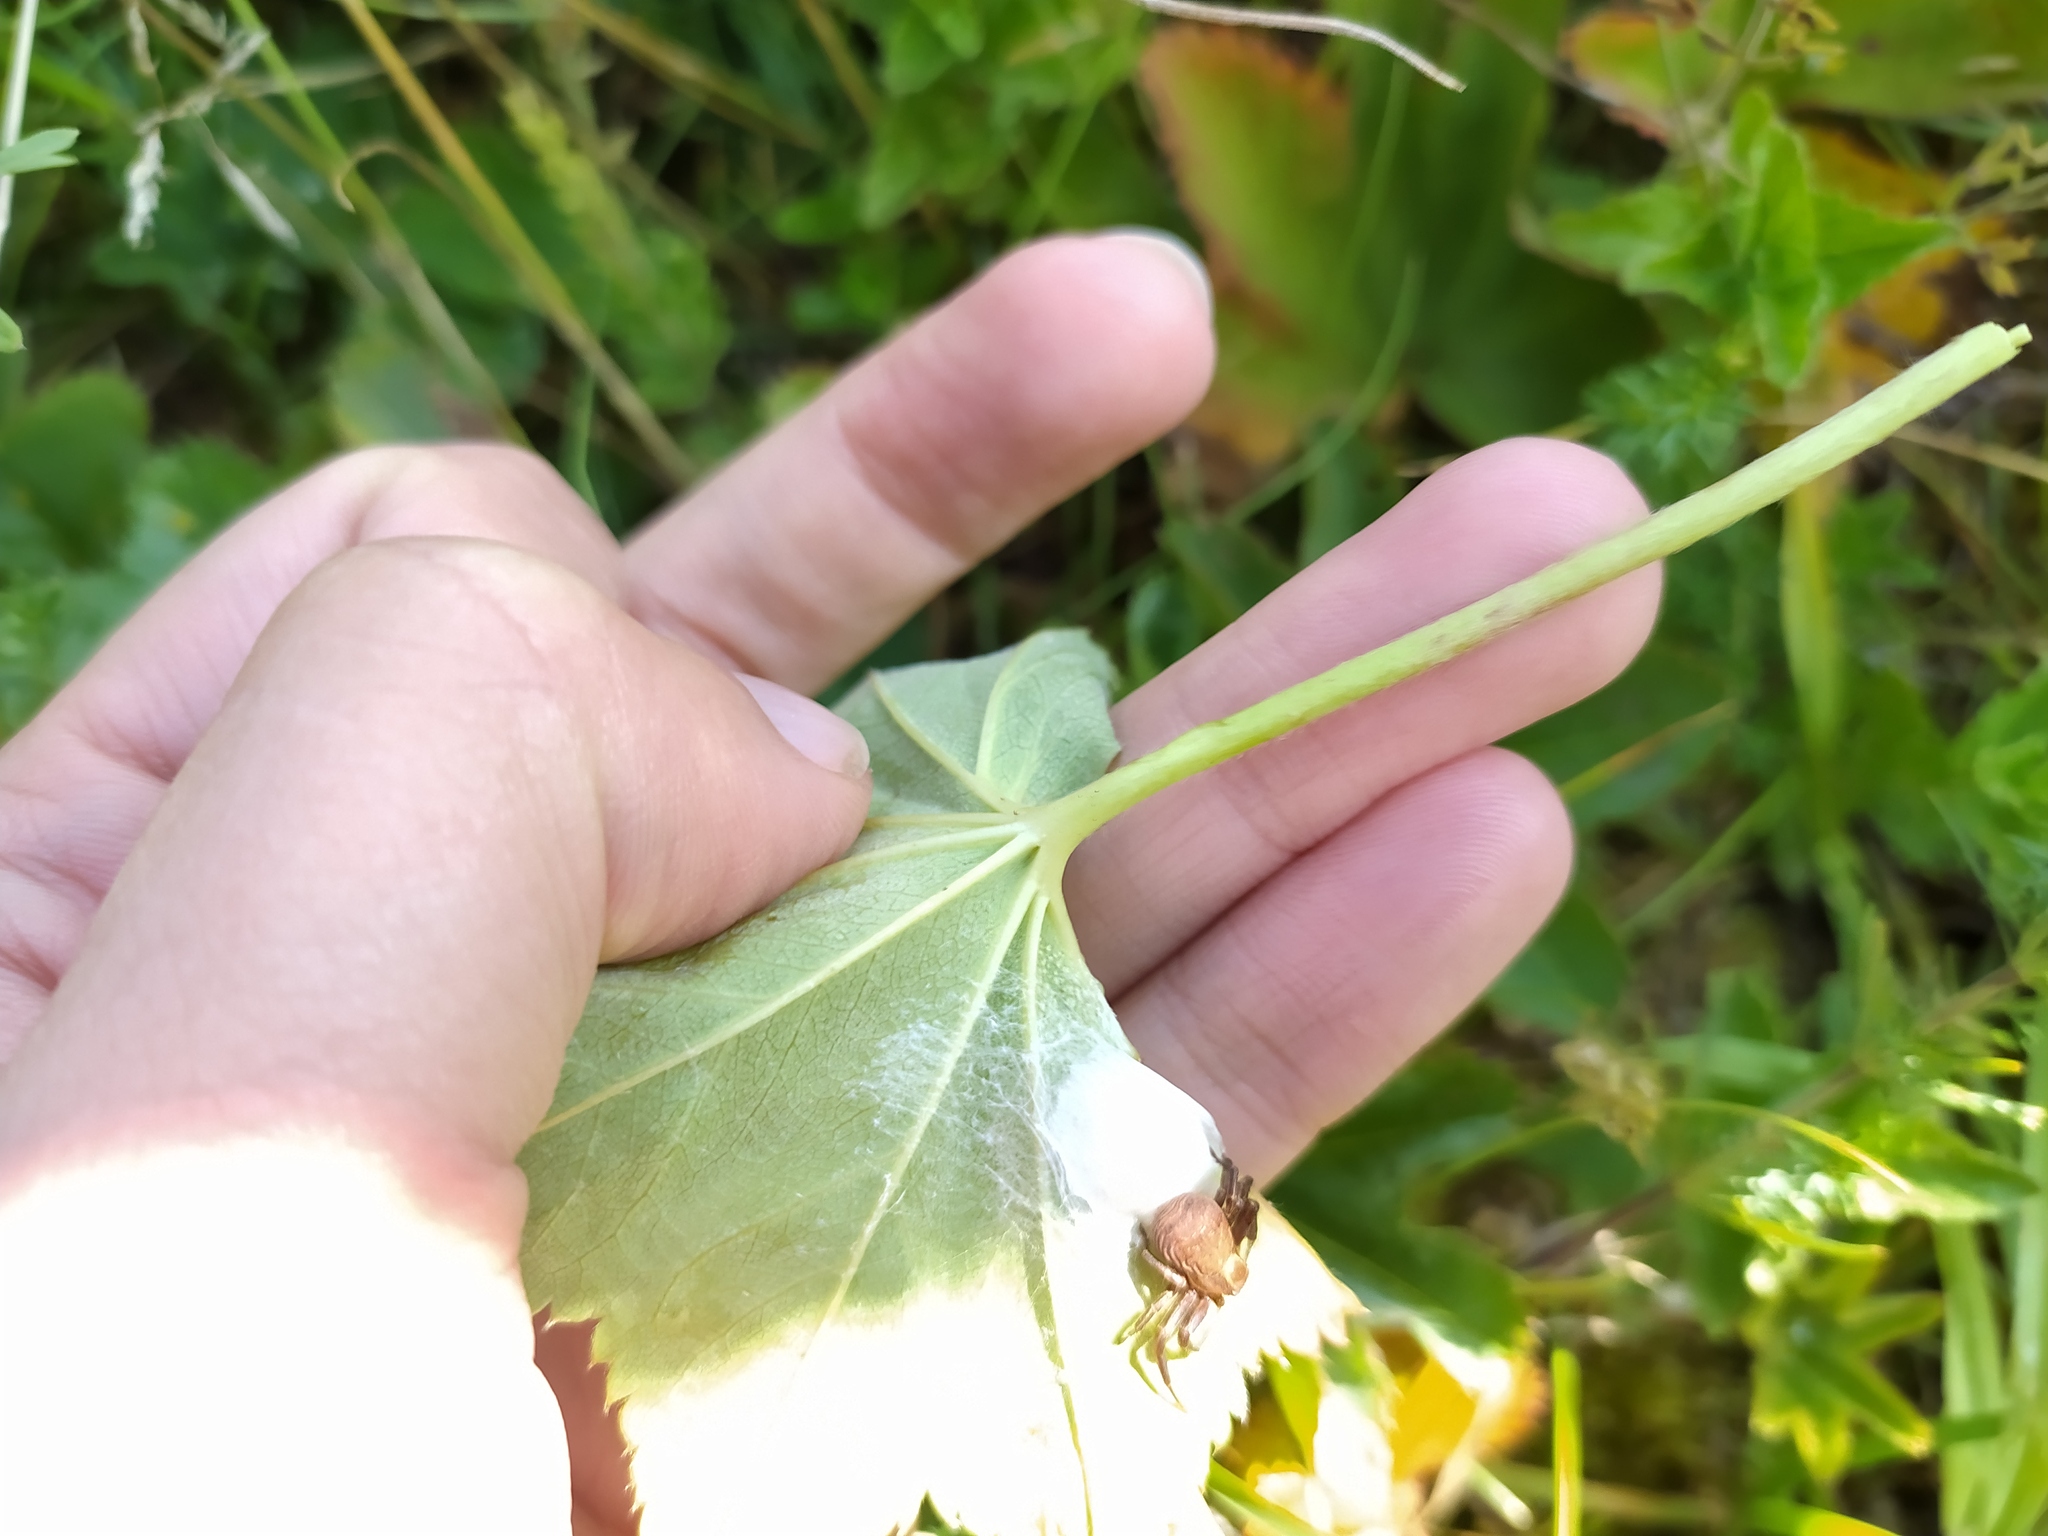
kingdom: Plantae
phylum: Tracheophyta
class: Magnoliopsida
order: Rosales
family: Rosaceae
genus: Alchemilla
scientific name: Alchemilla glabra
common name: Smooth lady's-mantle
